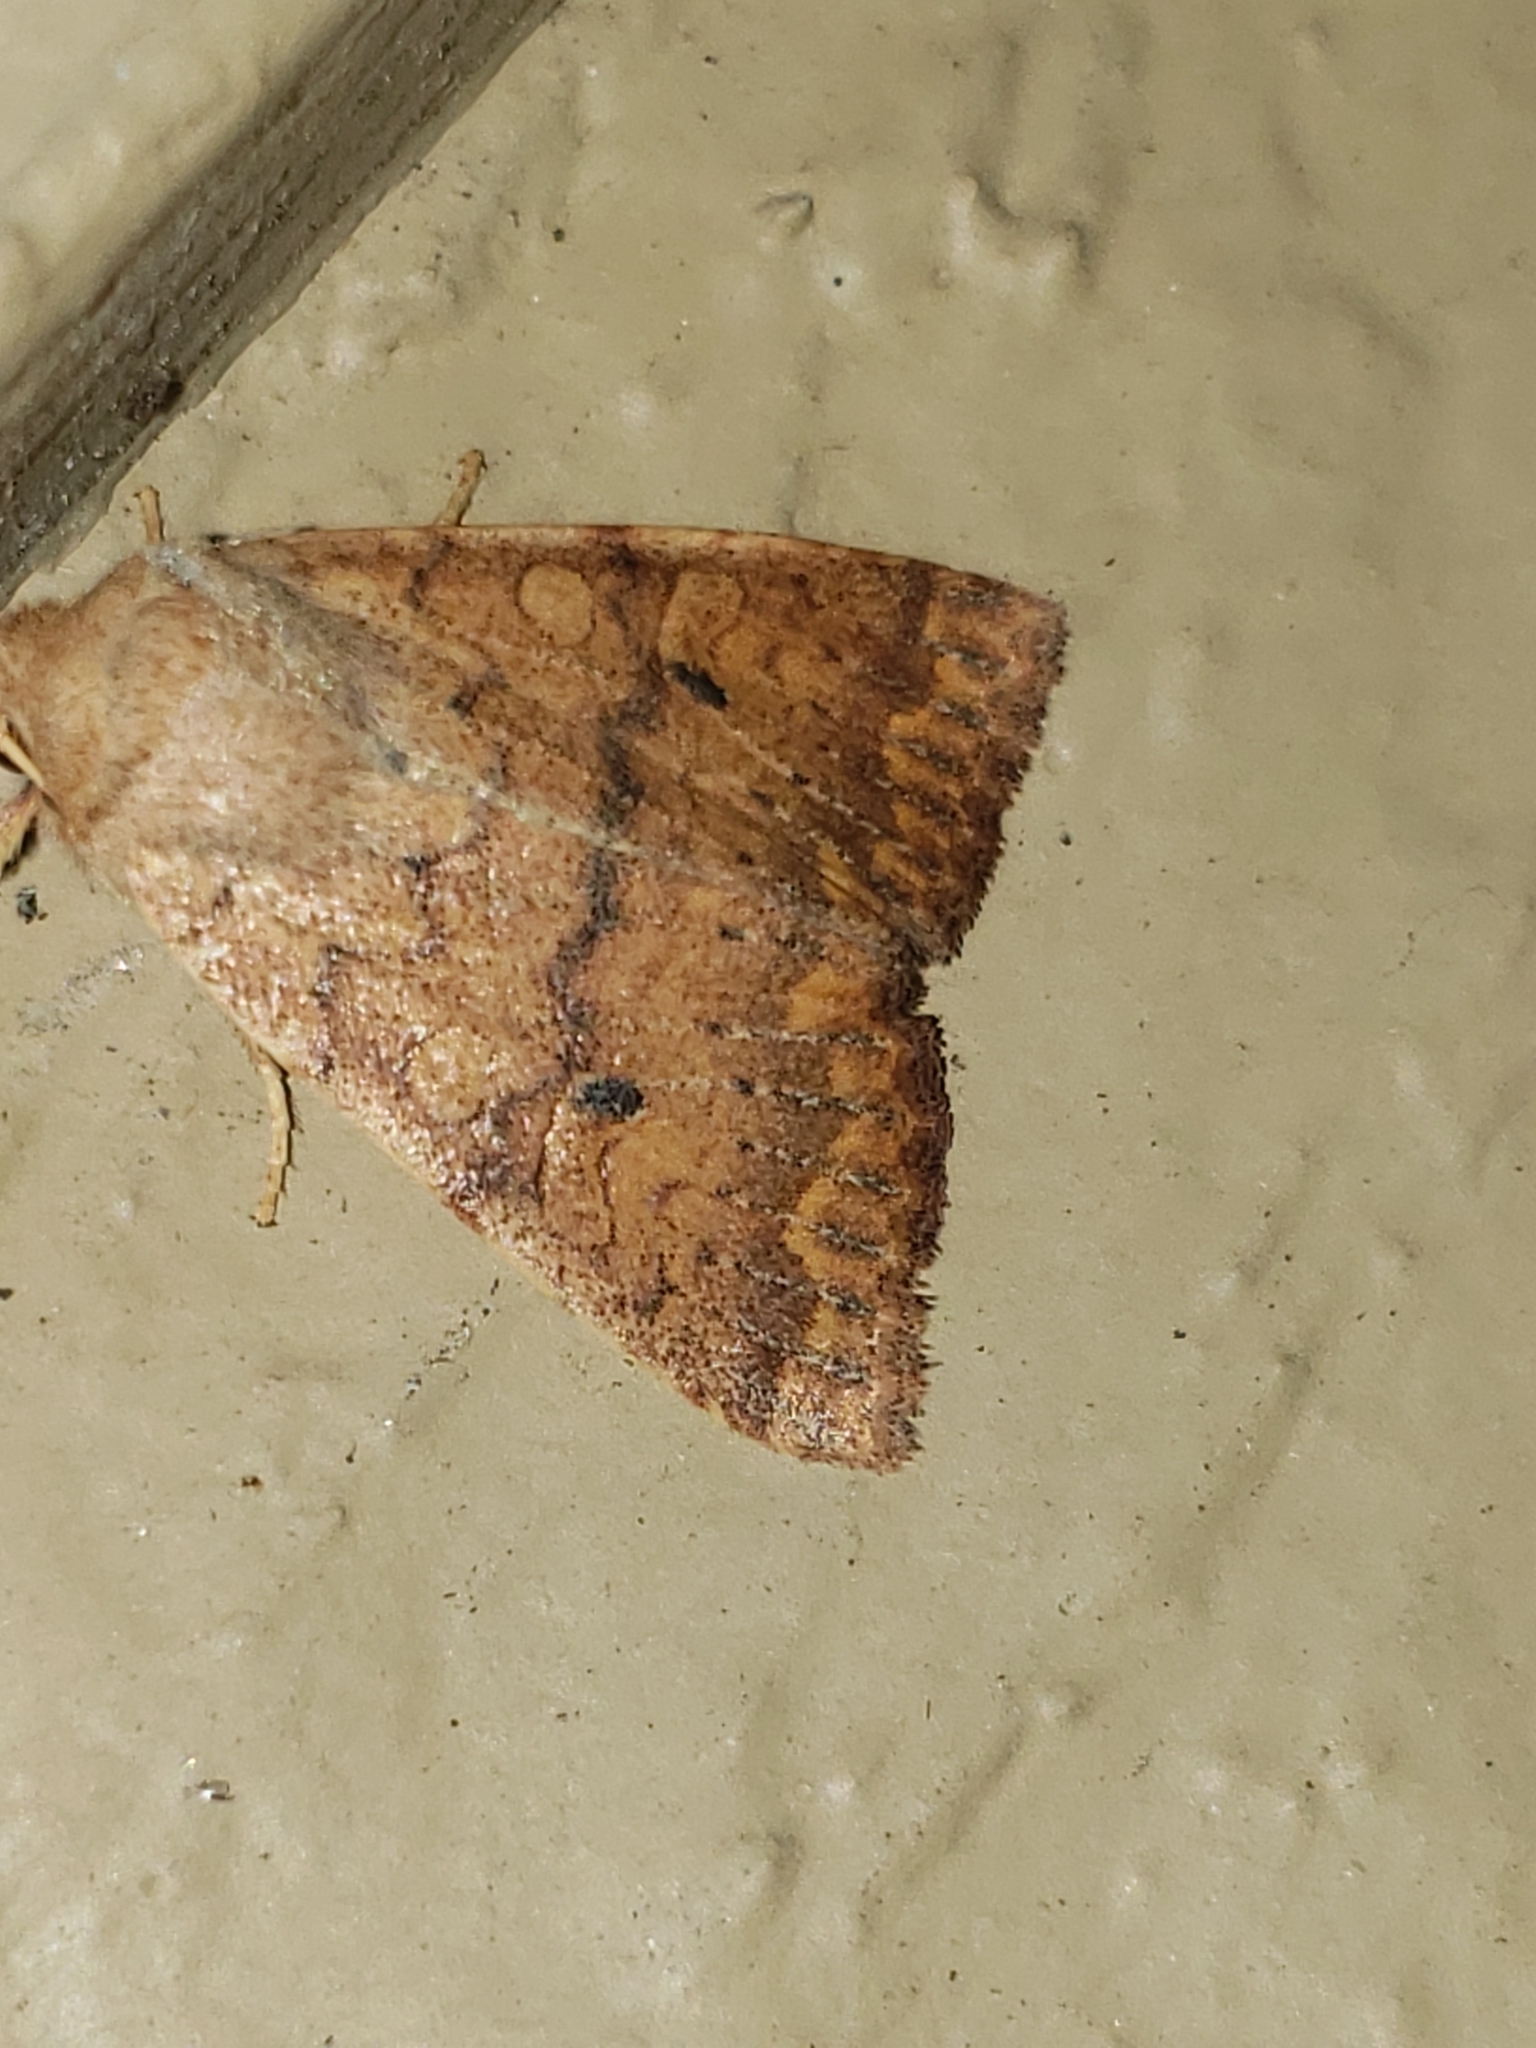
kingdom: Animalia
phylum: Arthropoda
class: Insecta
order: Lepidoptera
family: Noctuidae
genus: Agrochola
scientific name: Agrochola bicolorago
